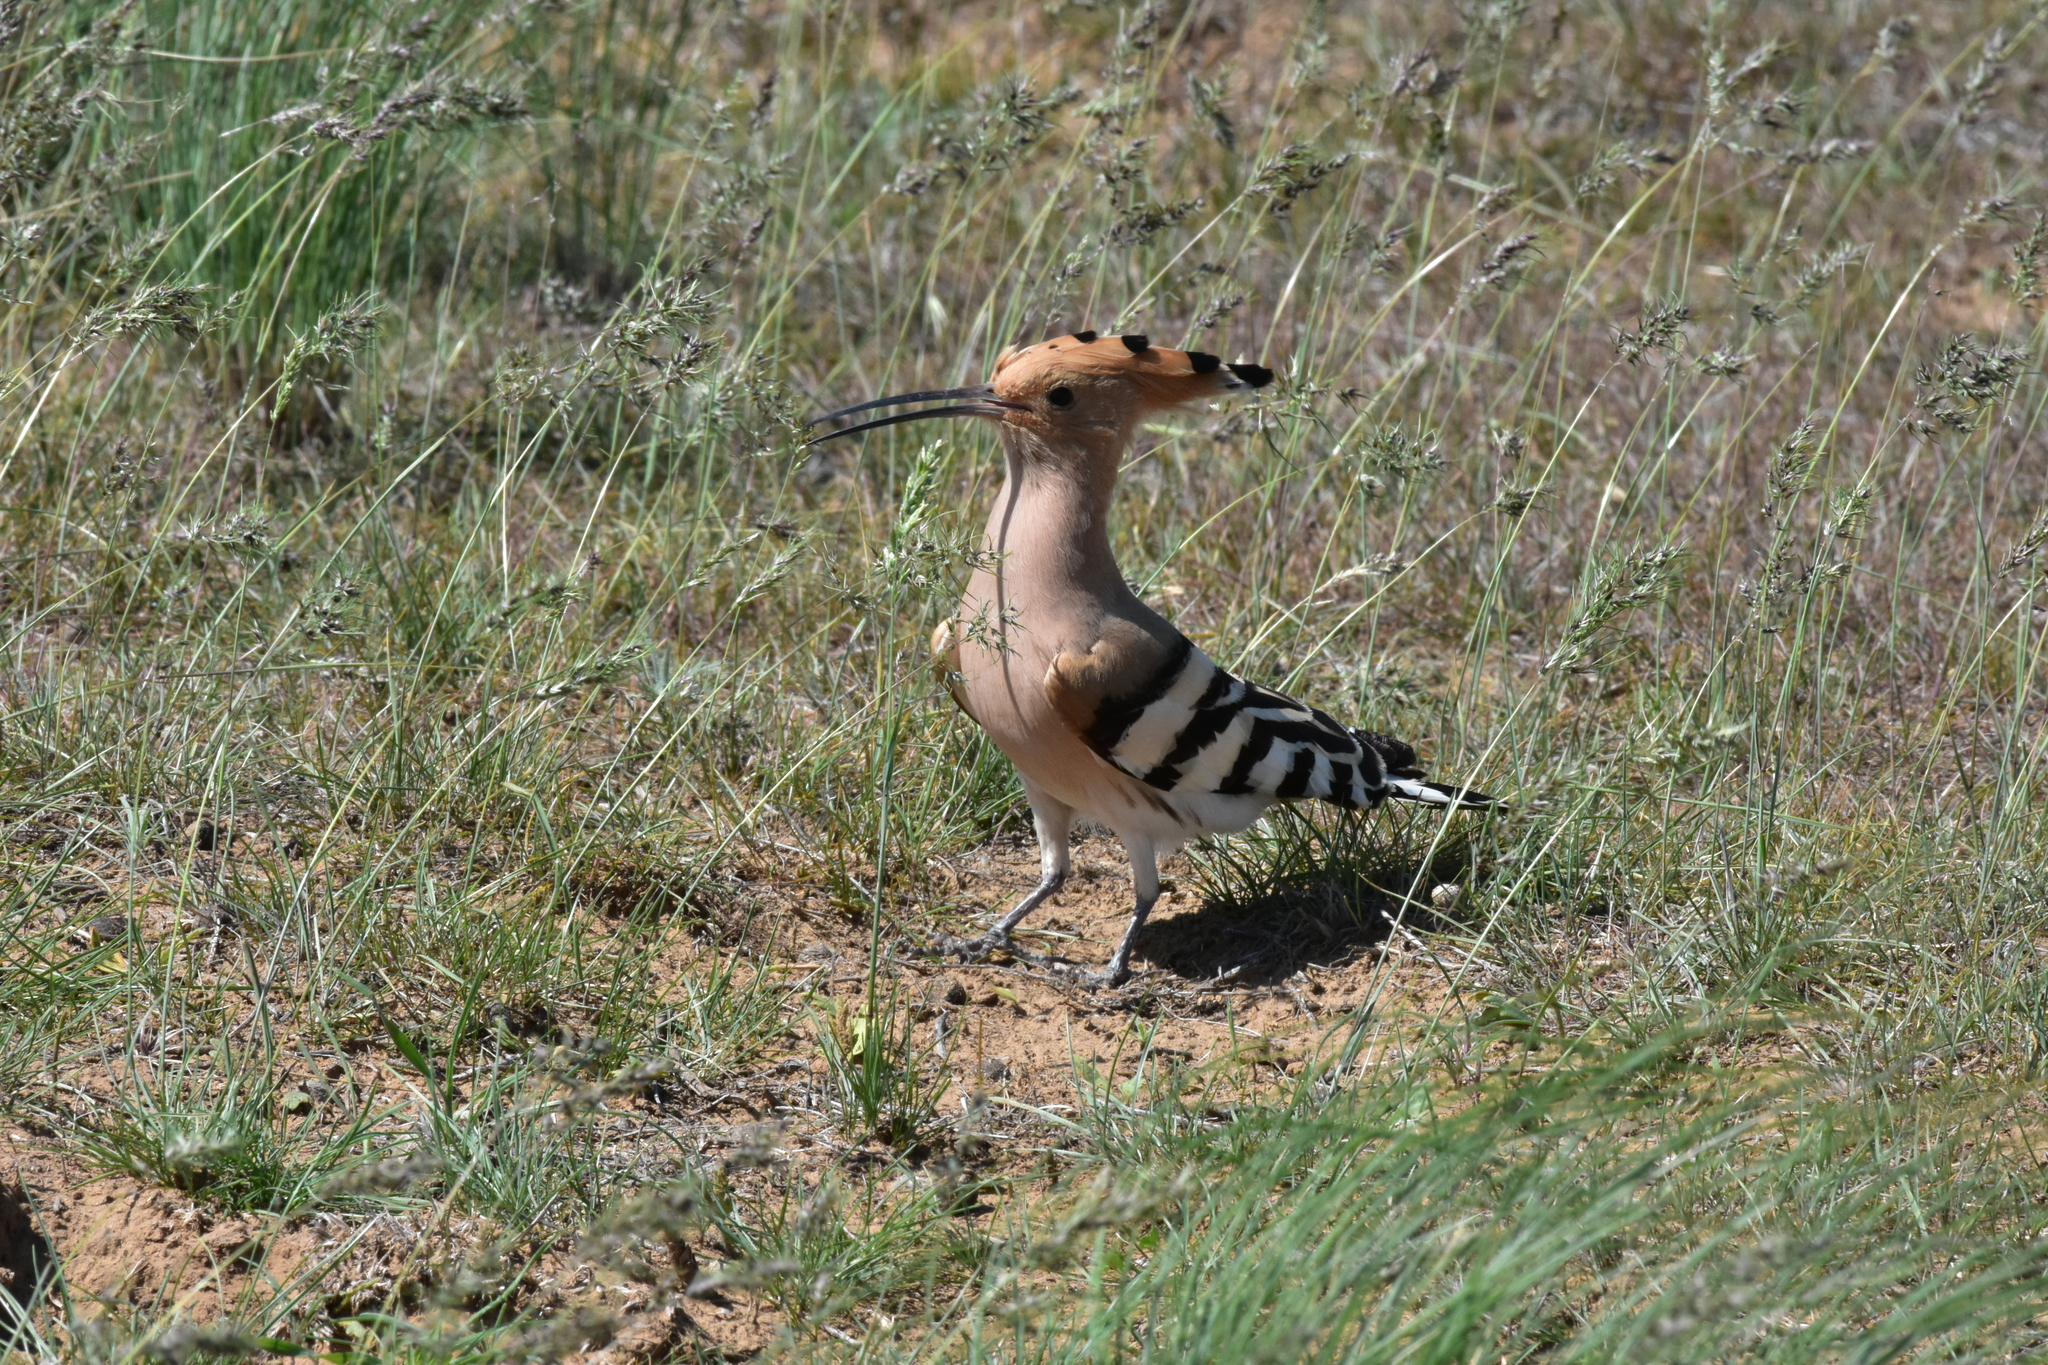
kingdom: Animalia
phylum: Chordata
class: Aves
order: Bucerotiformes
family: Upupidae
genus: Upupa
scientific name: Upupa epops
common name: Eurasian hoopoe
